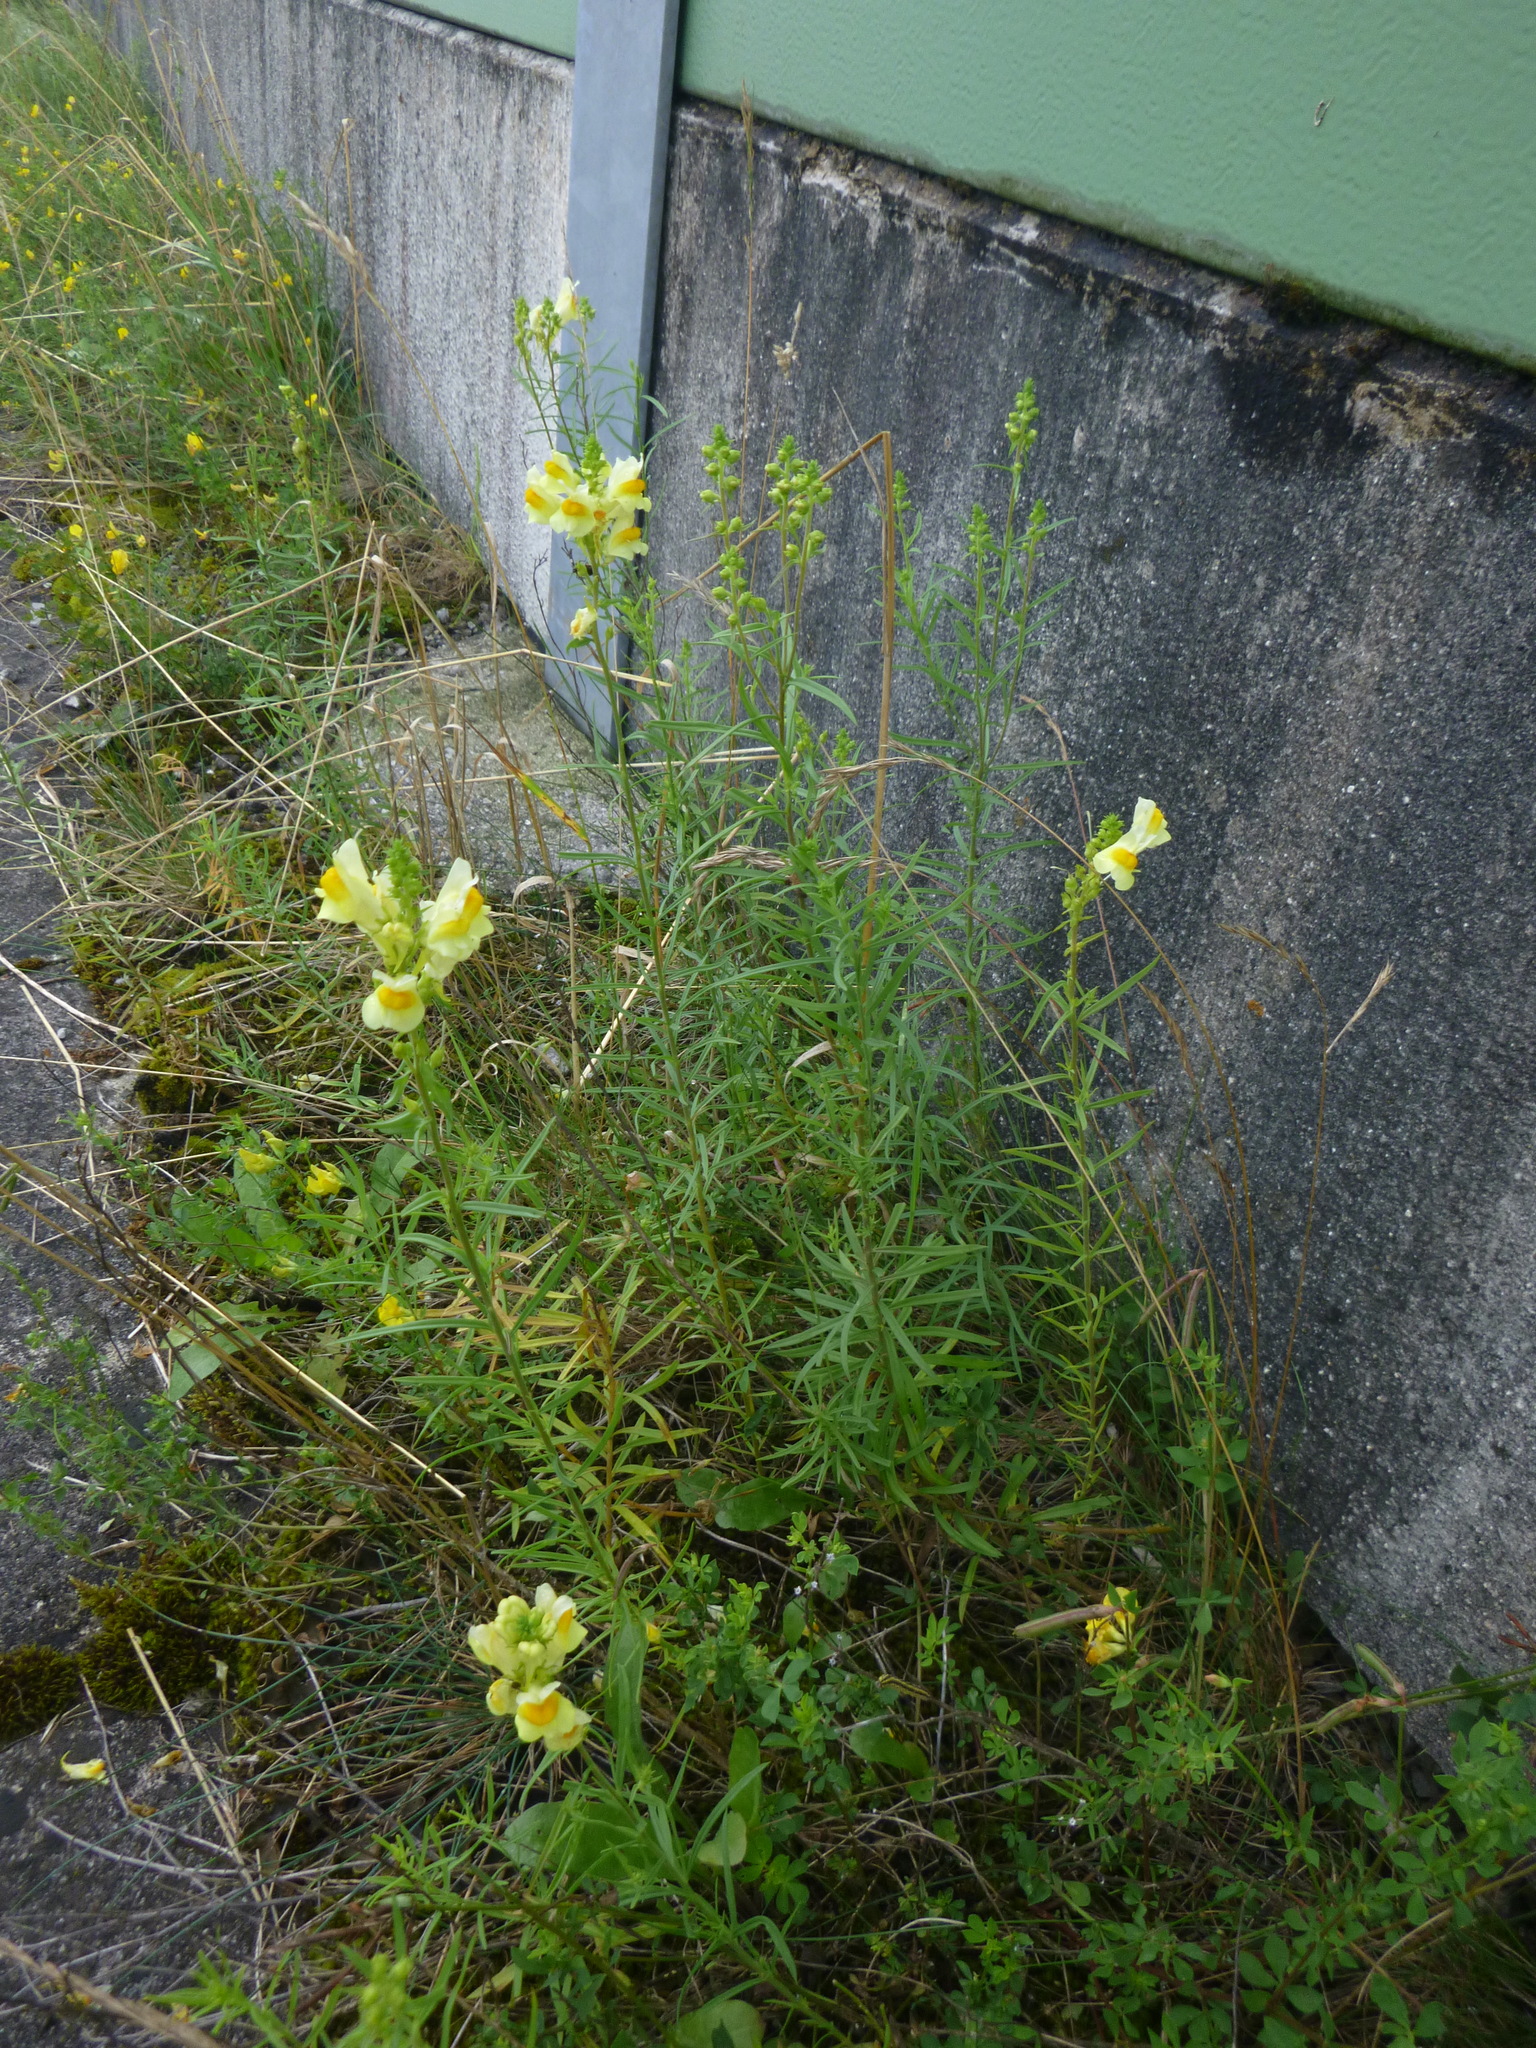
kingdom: Plantae
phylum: Tracheophyta
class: Magnoliopsida
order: Lamiales
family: Plantaginaceae
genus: Linaria
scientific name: Linaria vulgaris
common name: Butter and eggs
